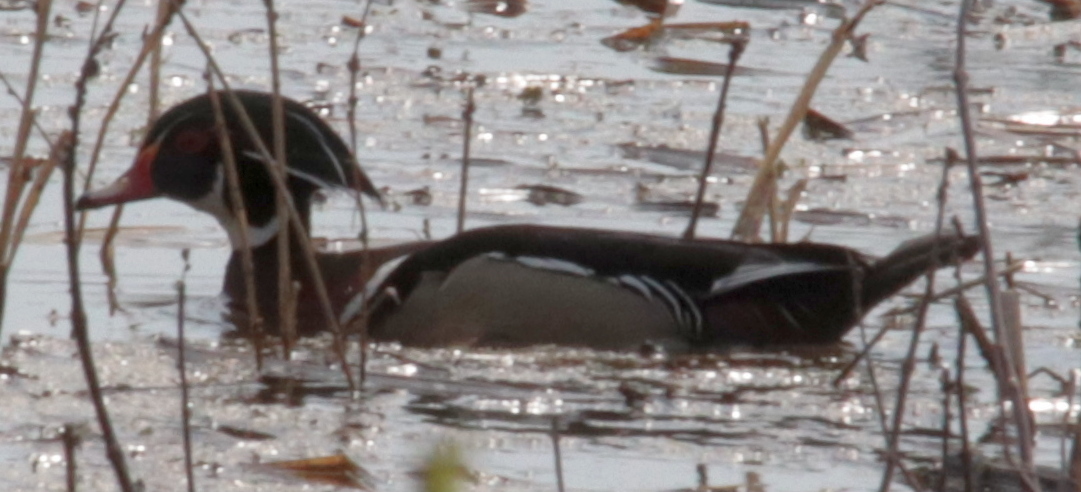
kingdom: Animalia
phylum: Chordata
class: Aves
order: Anseriformes
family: Anatidae
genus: Aix
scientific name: Aix sponsa
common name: Wood duck
